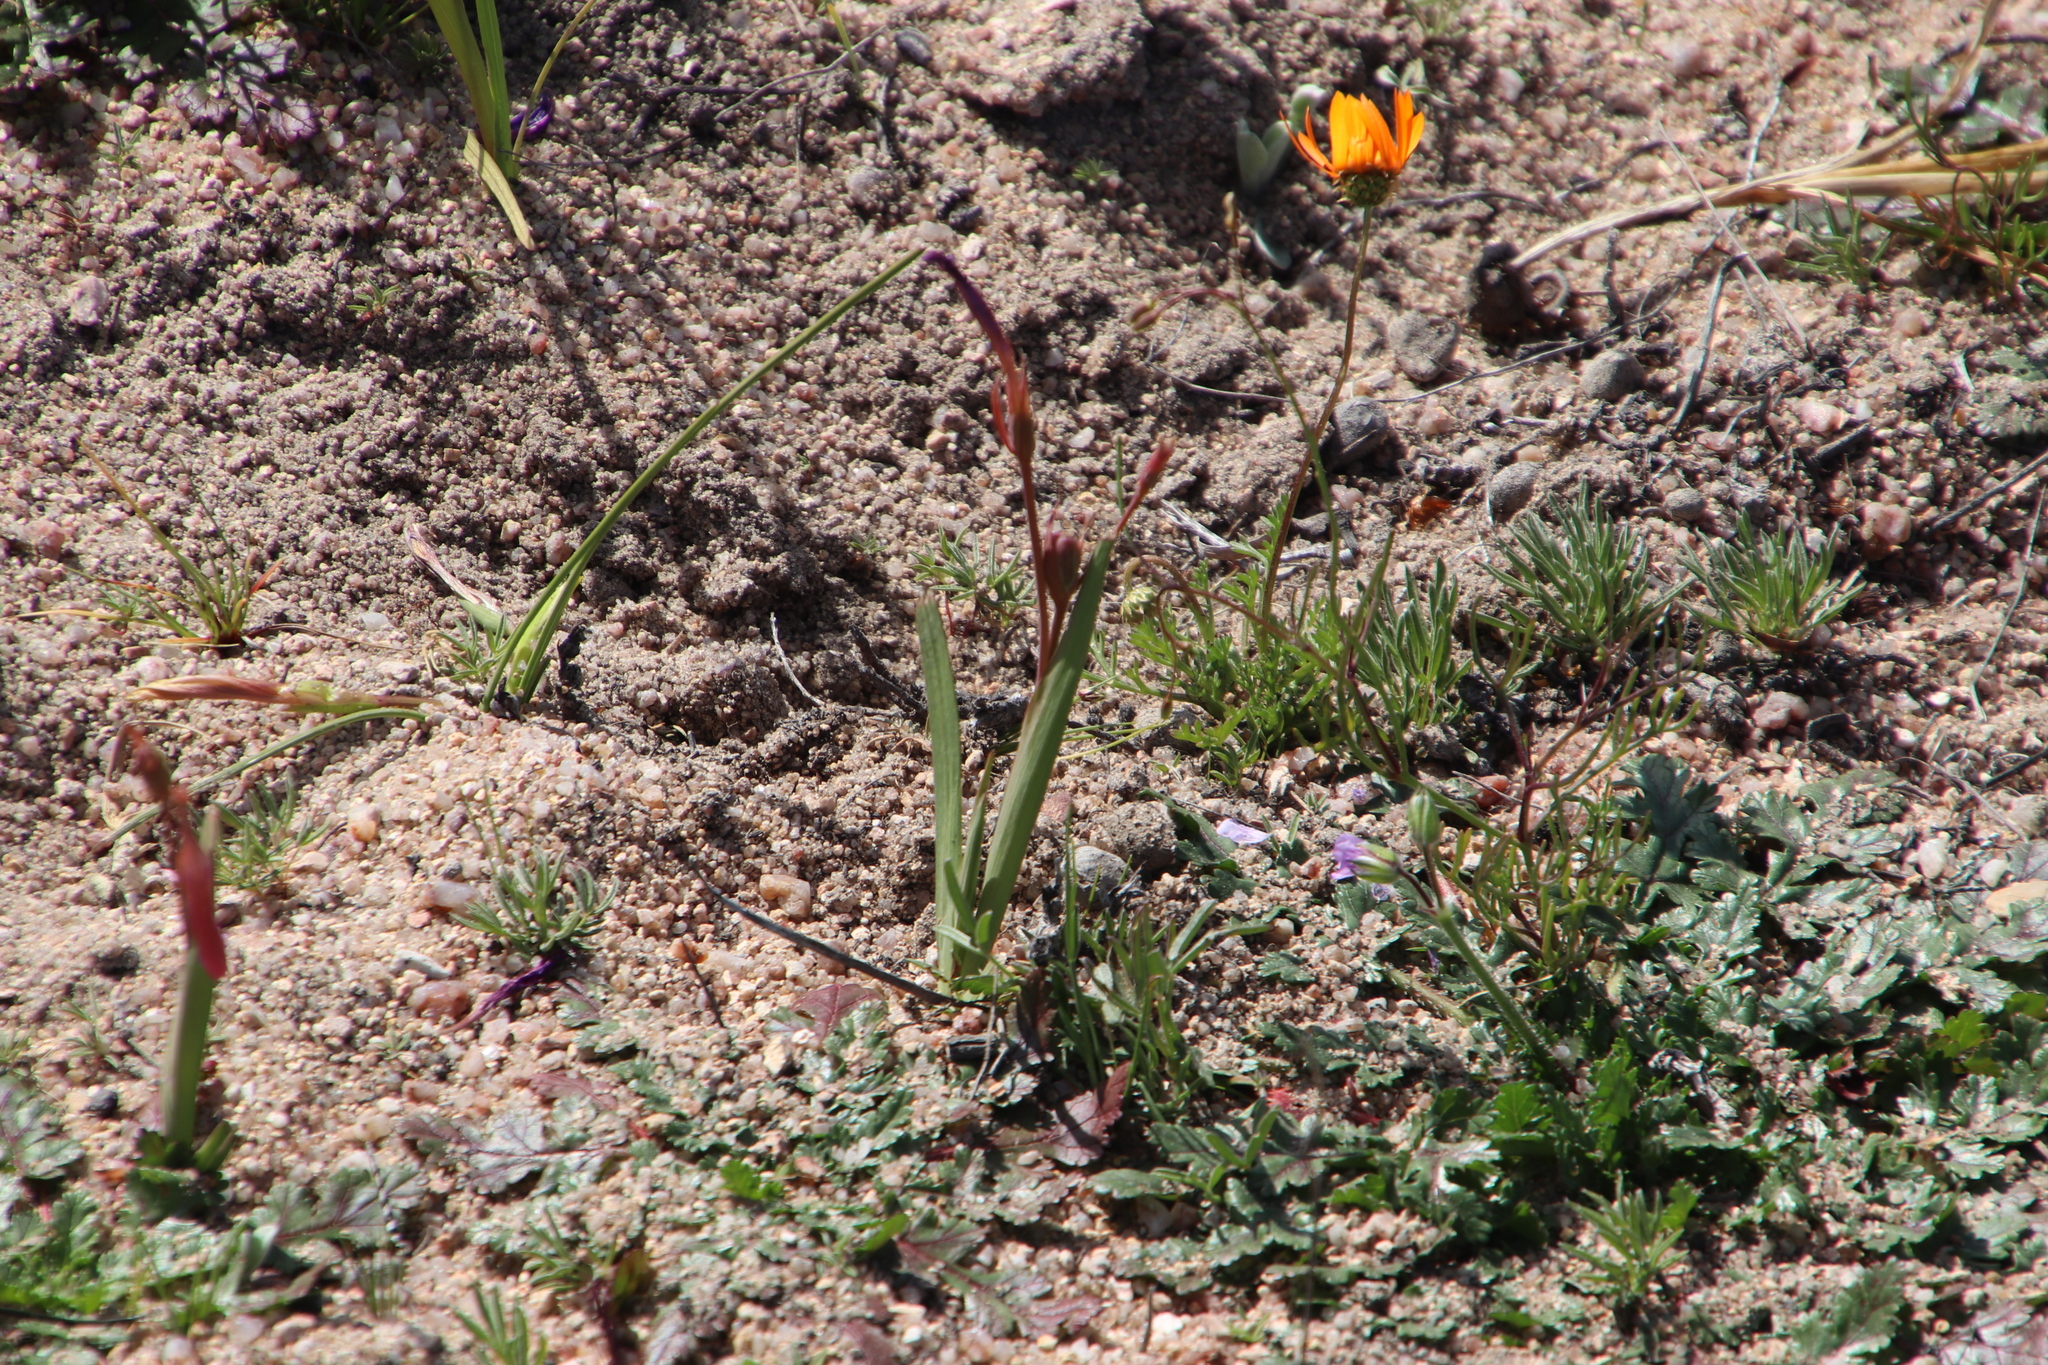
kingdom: Plantae
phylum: Tracheophyta
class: Liliopsida
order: Asparagales
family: Iridaceae
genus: Hesperantha
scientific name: Hesperantha pauciflora
